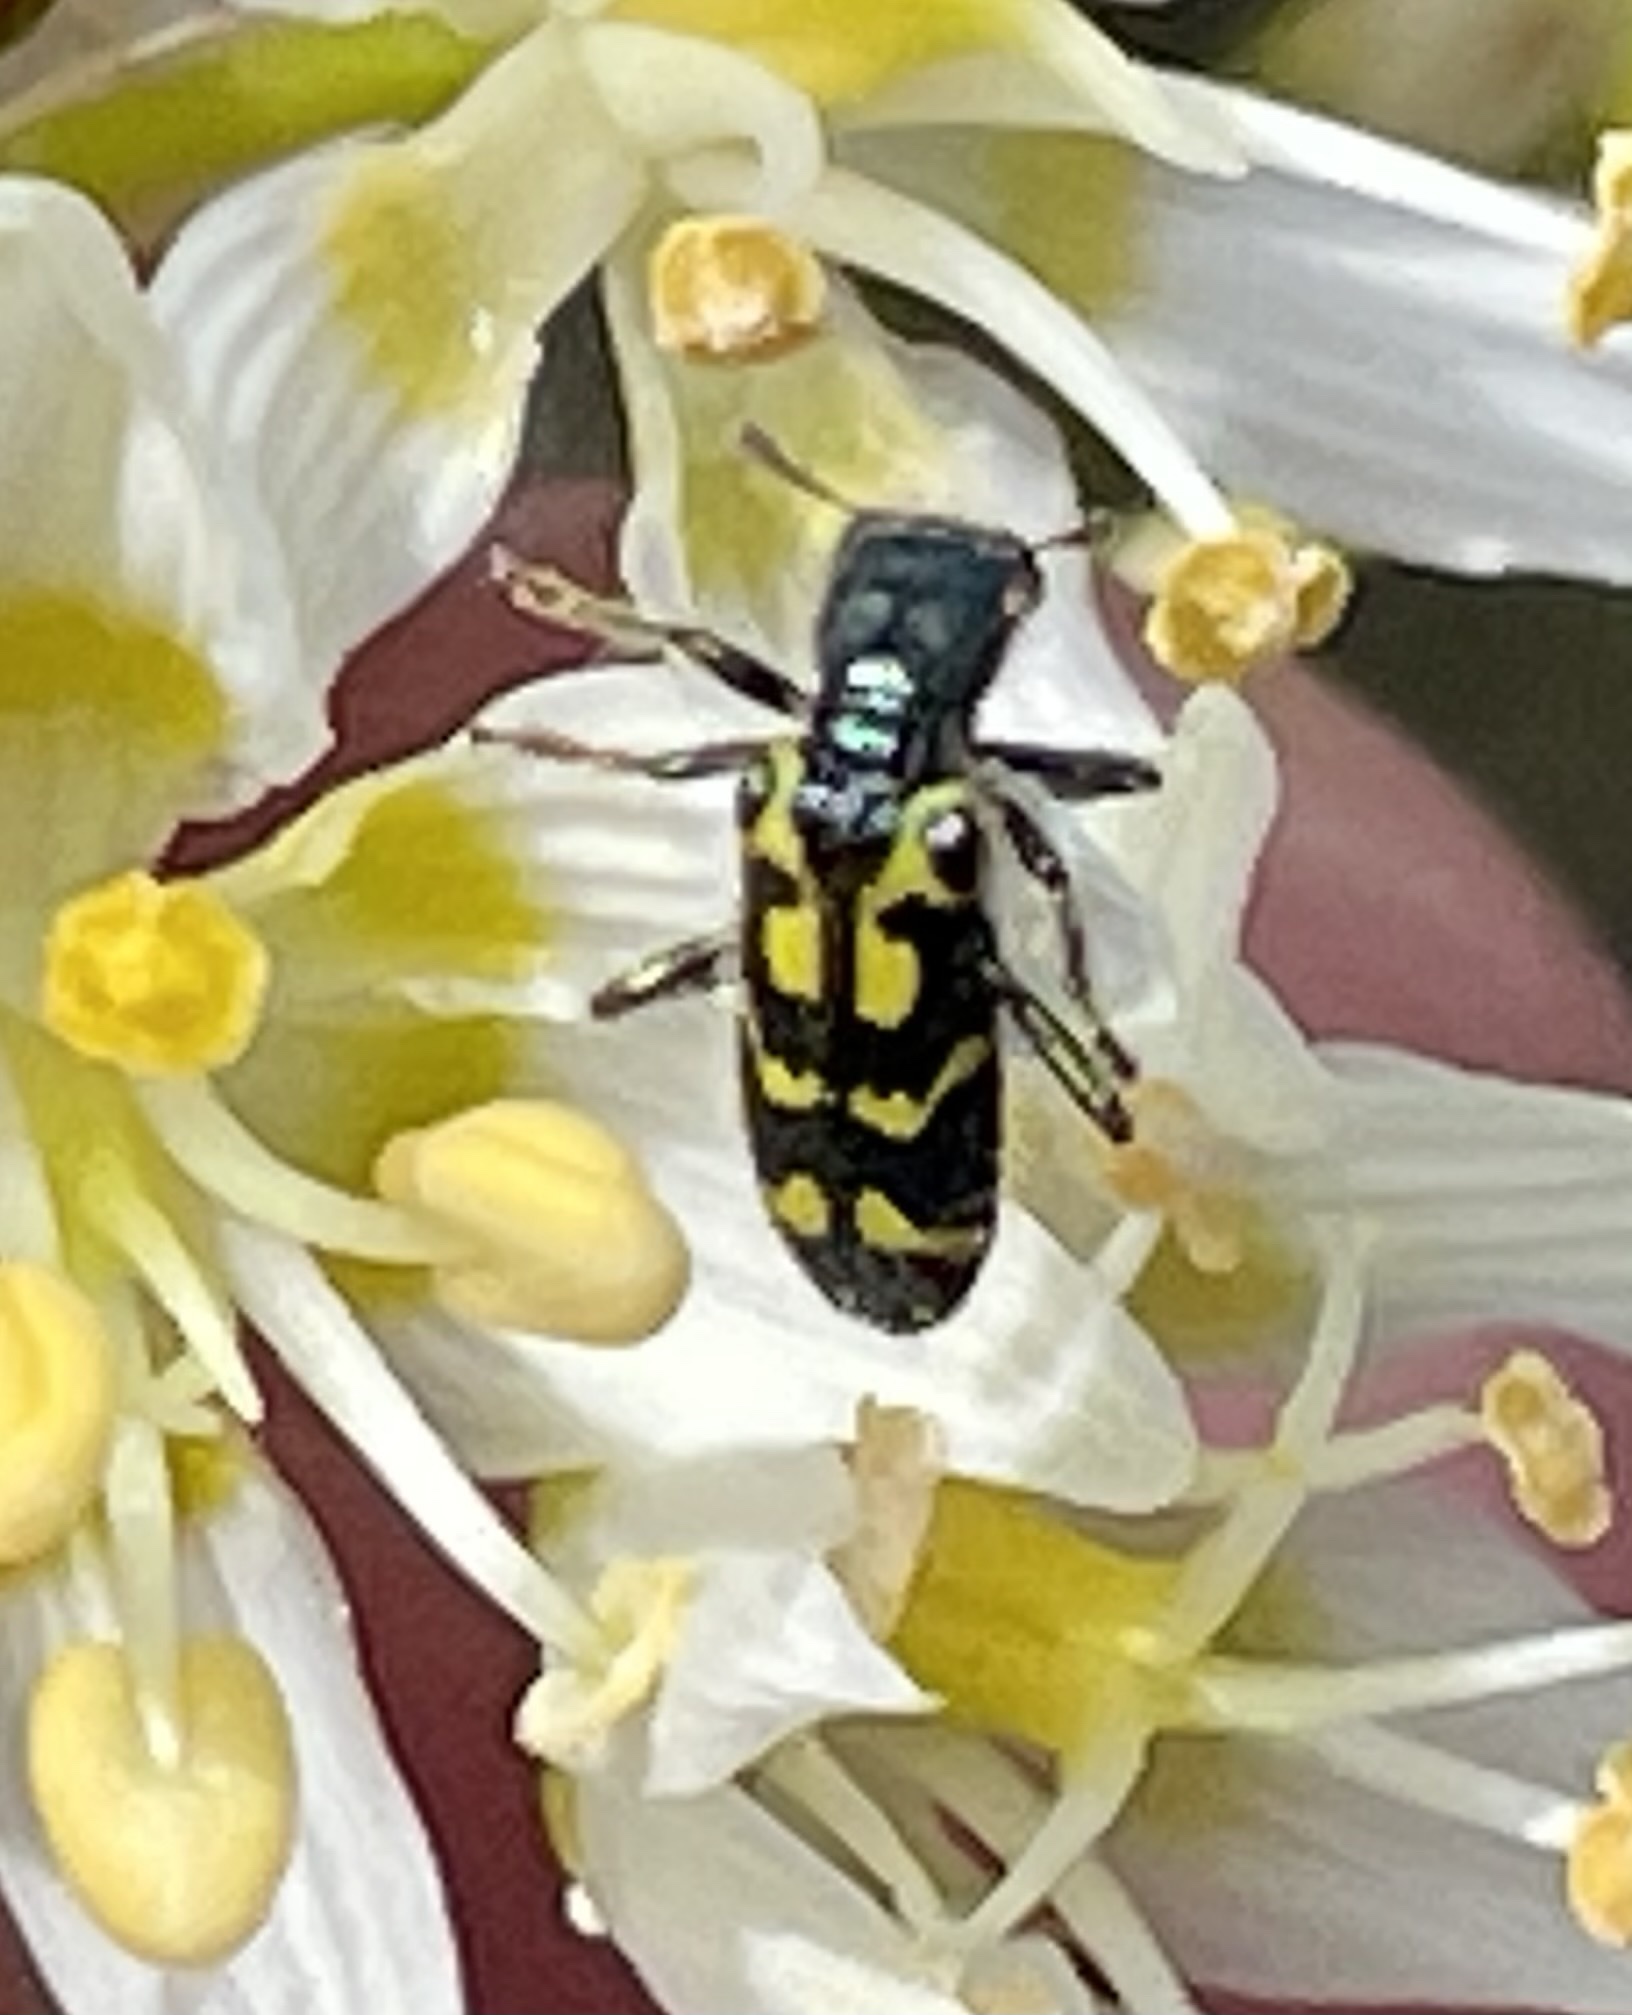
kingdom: Animalia
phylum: Arthropoda
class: Insecta
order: Coleoptera
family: Cleridae
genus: Trichodes
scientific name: Trichodes ornatus
